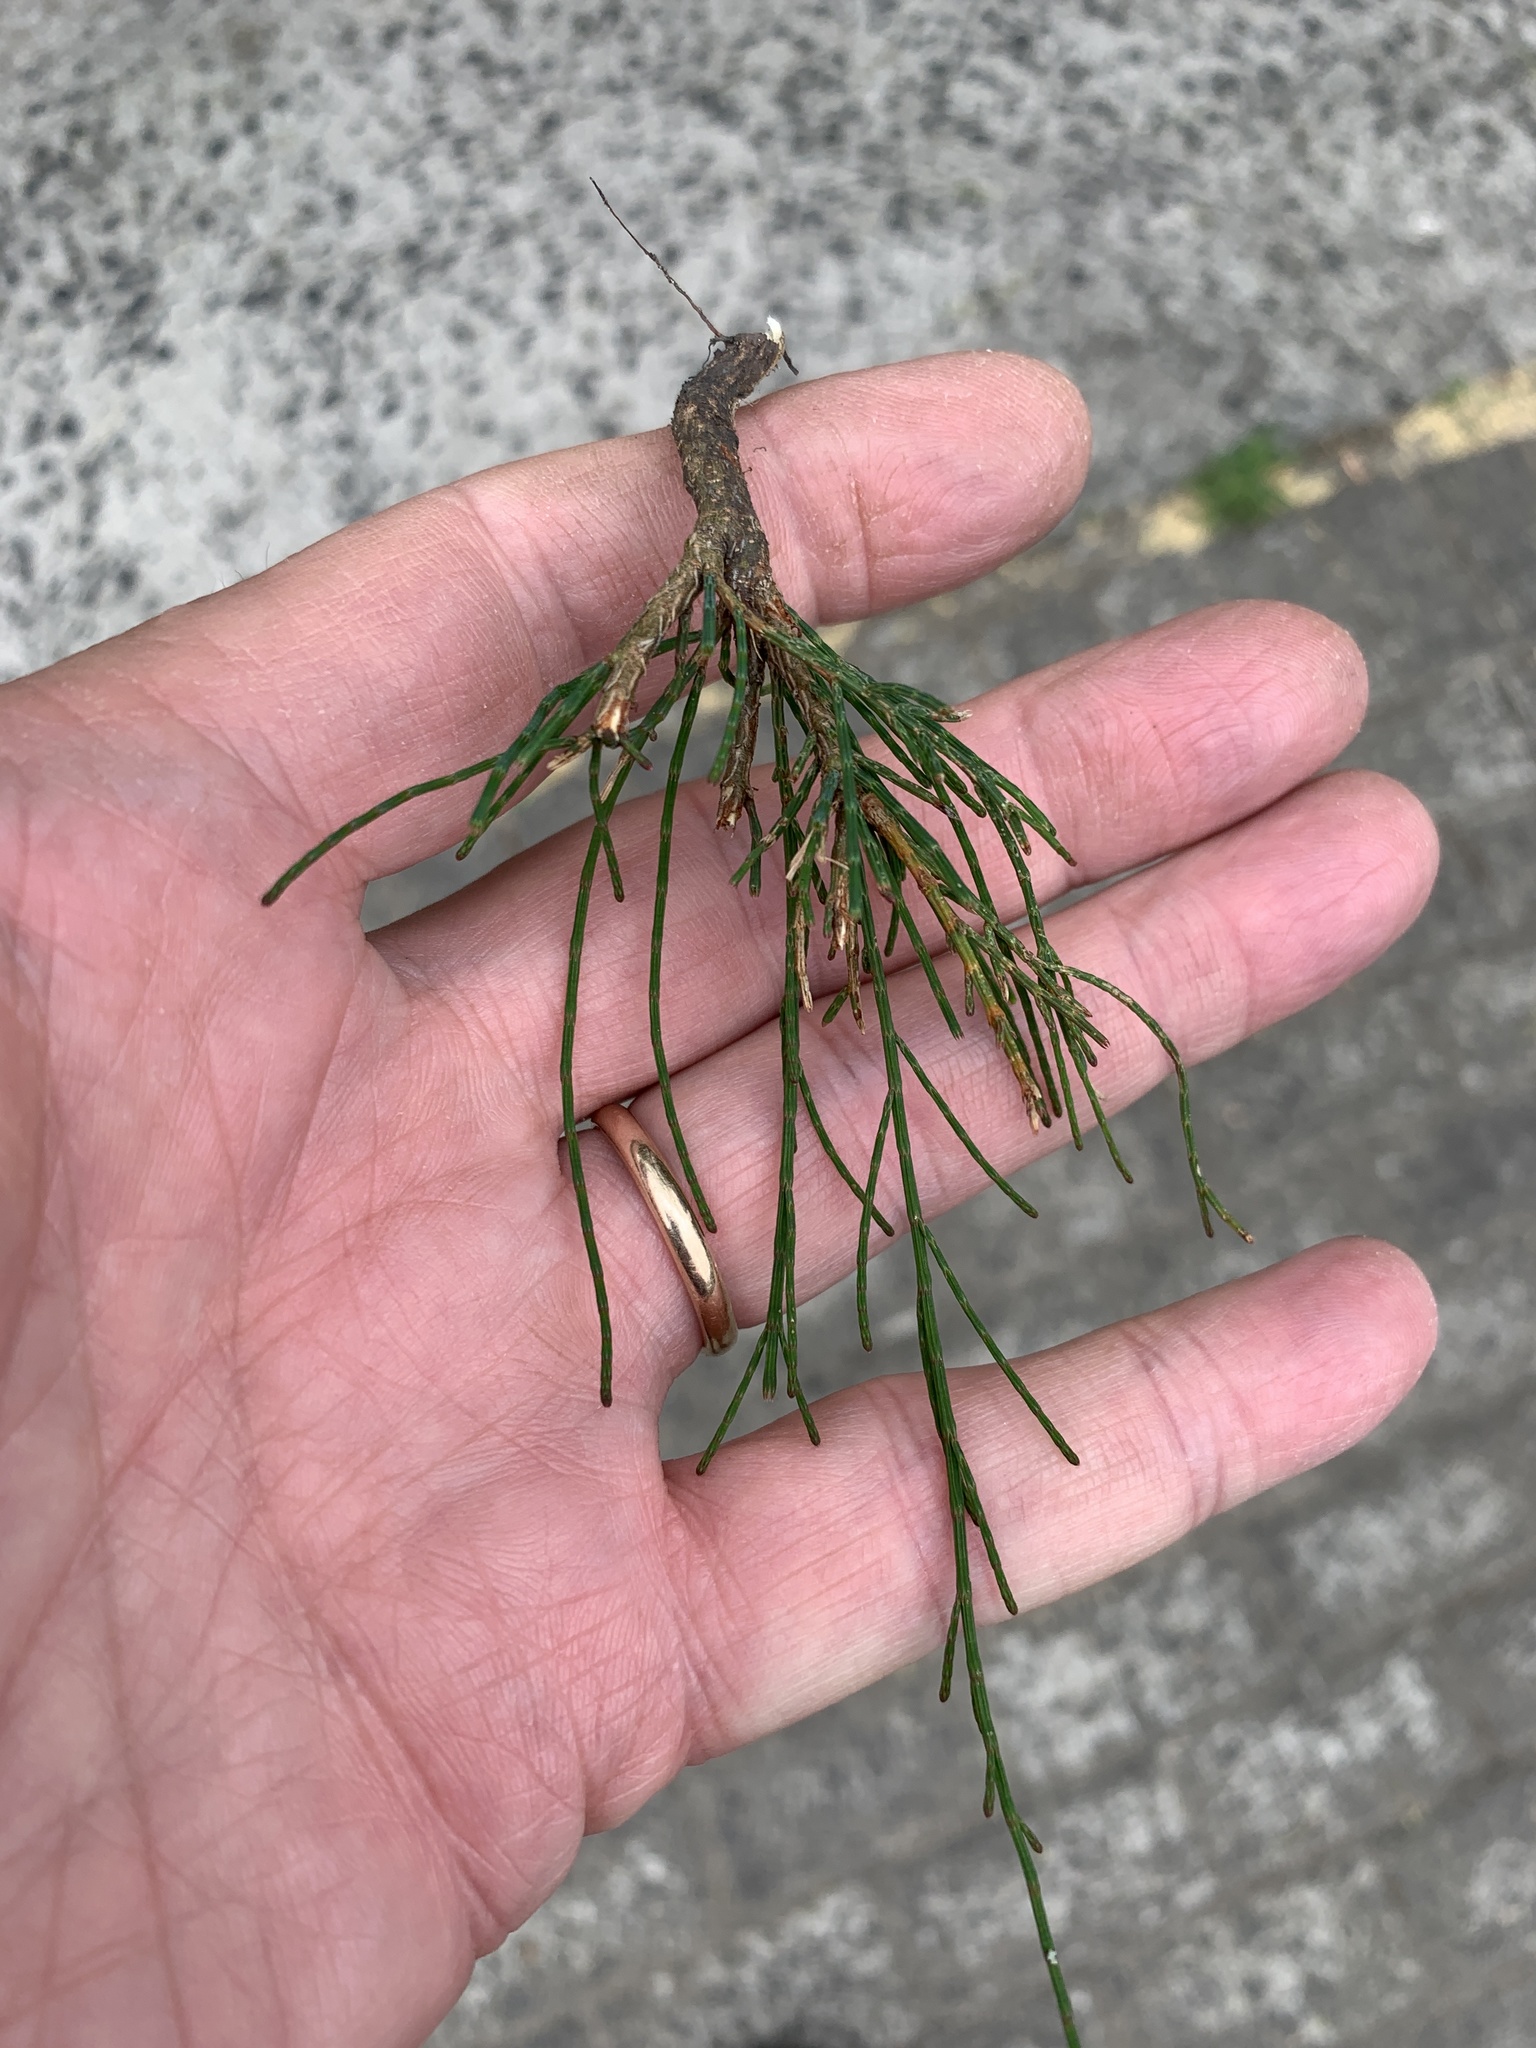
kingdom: Plantae
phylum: Tracheophyta
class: Magnoliopsida
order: Fagales
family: Casuarinaceae
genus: Casuarina
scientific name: Casuarina cunninghamiana
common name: River sheoak
